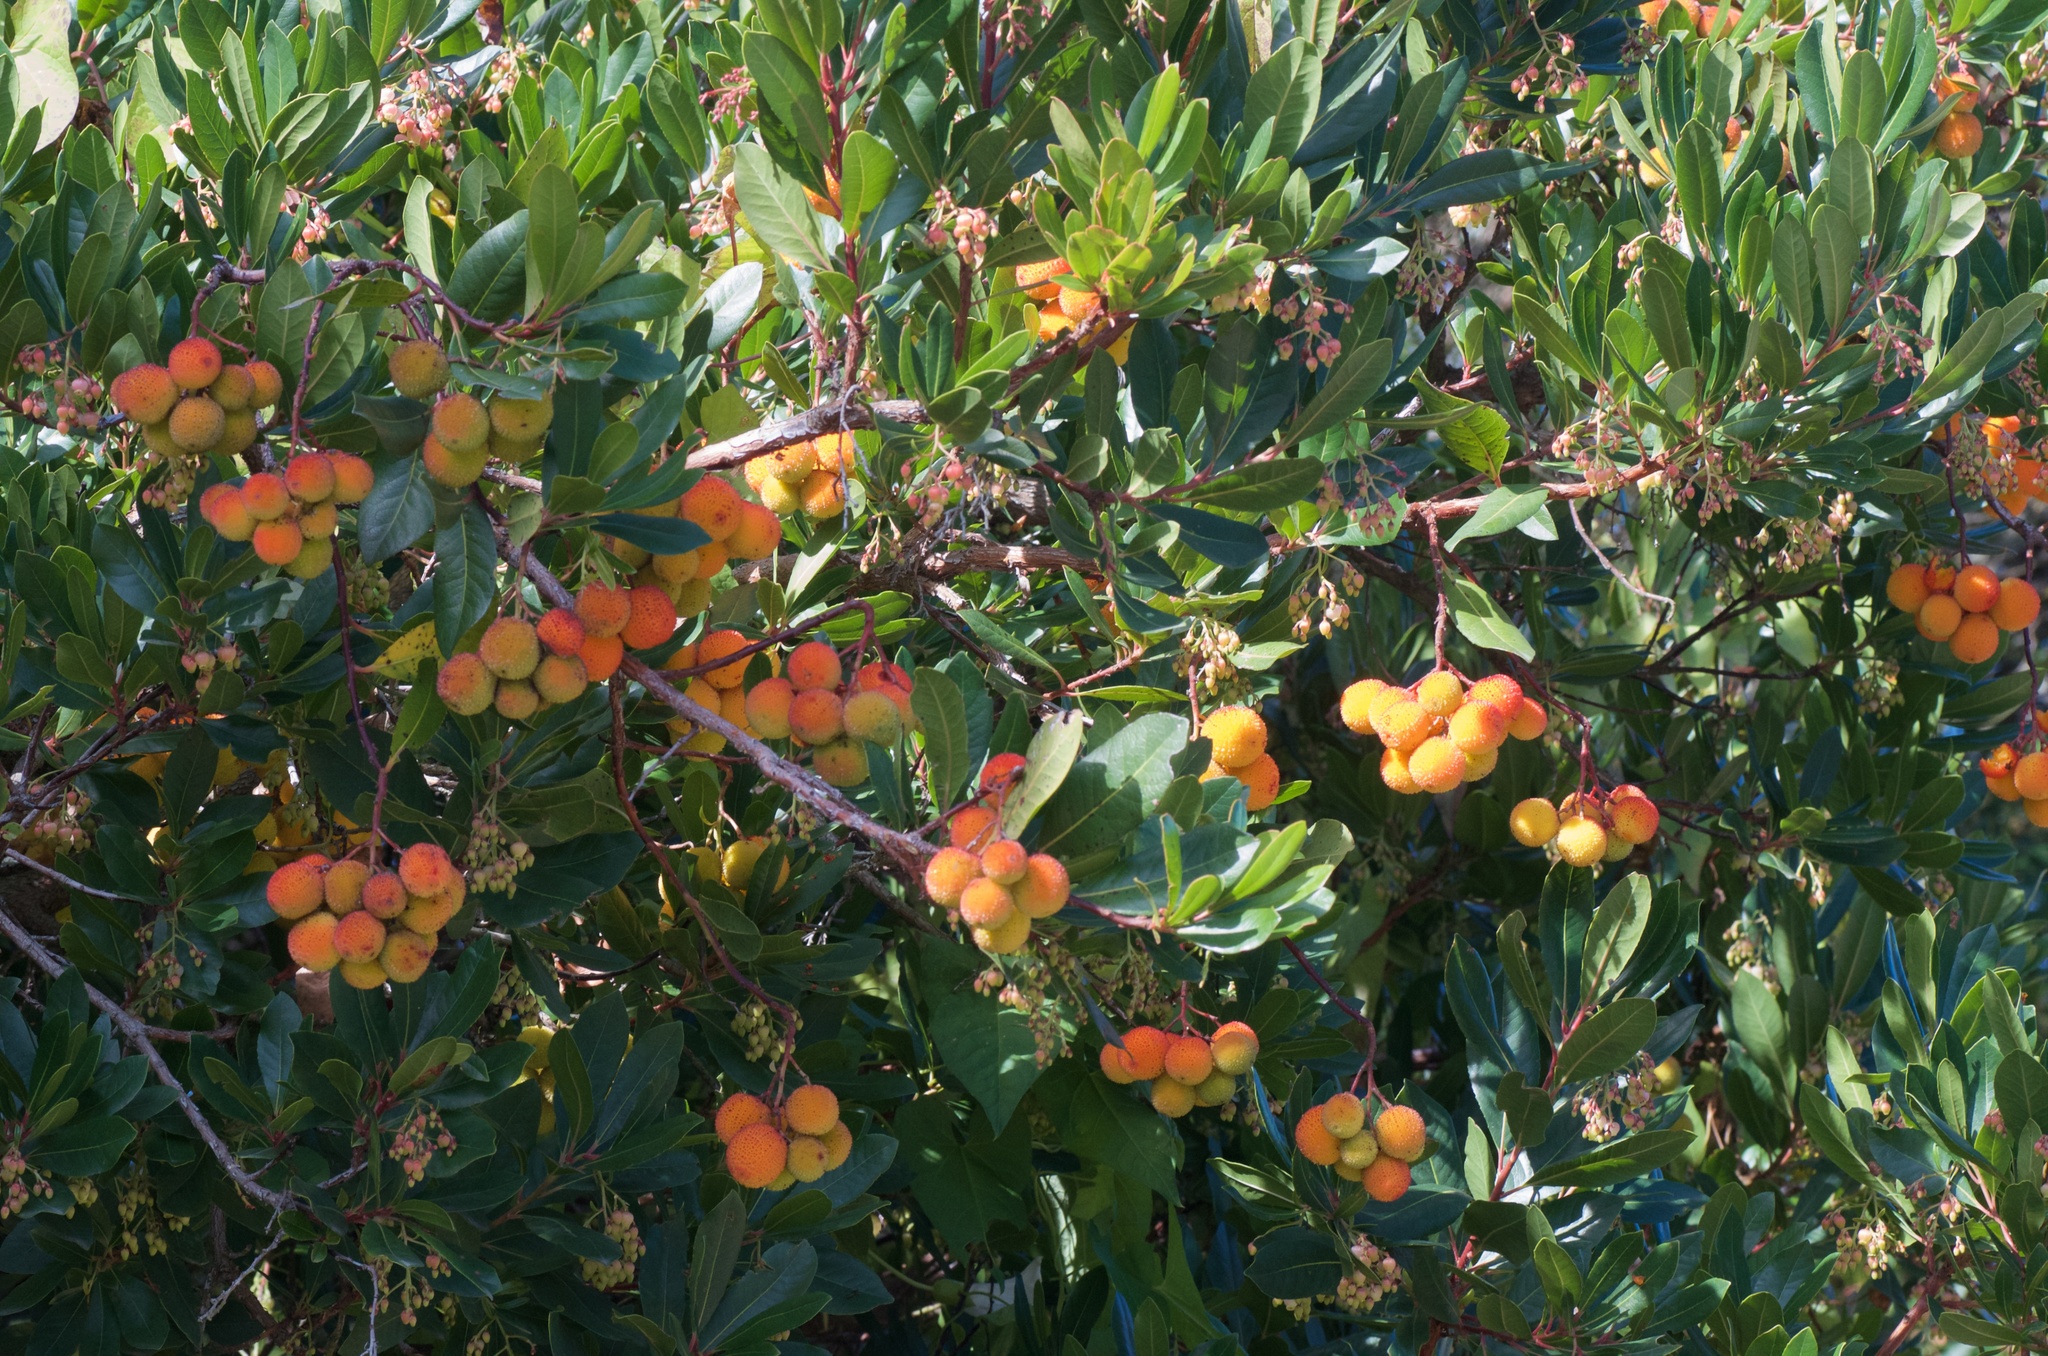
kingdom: Plantae
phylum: Tracheophyta
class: Magnoliopsida
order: Ericales
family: Ericaceae
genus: Arbutus
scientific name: Arbutus unedo
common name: Strawberry-tree
